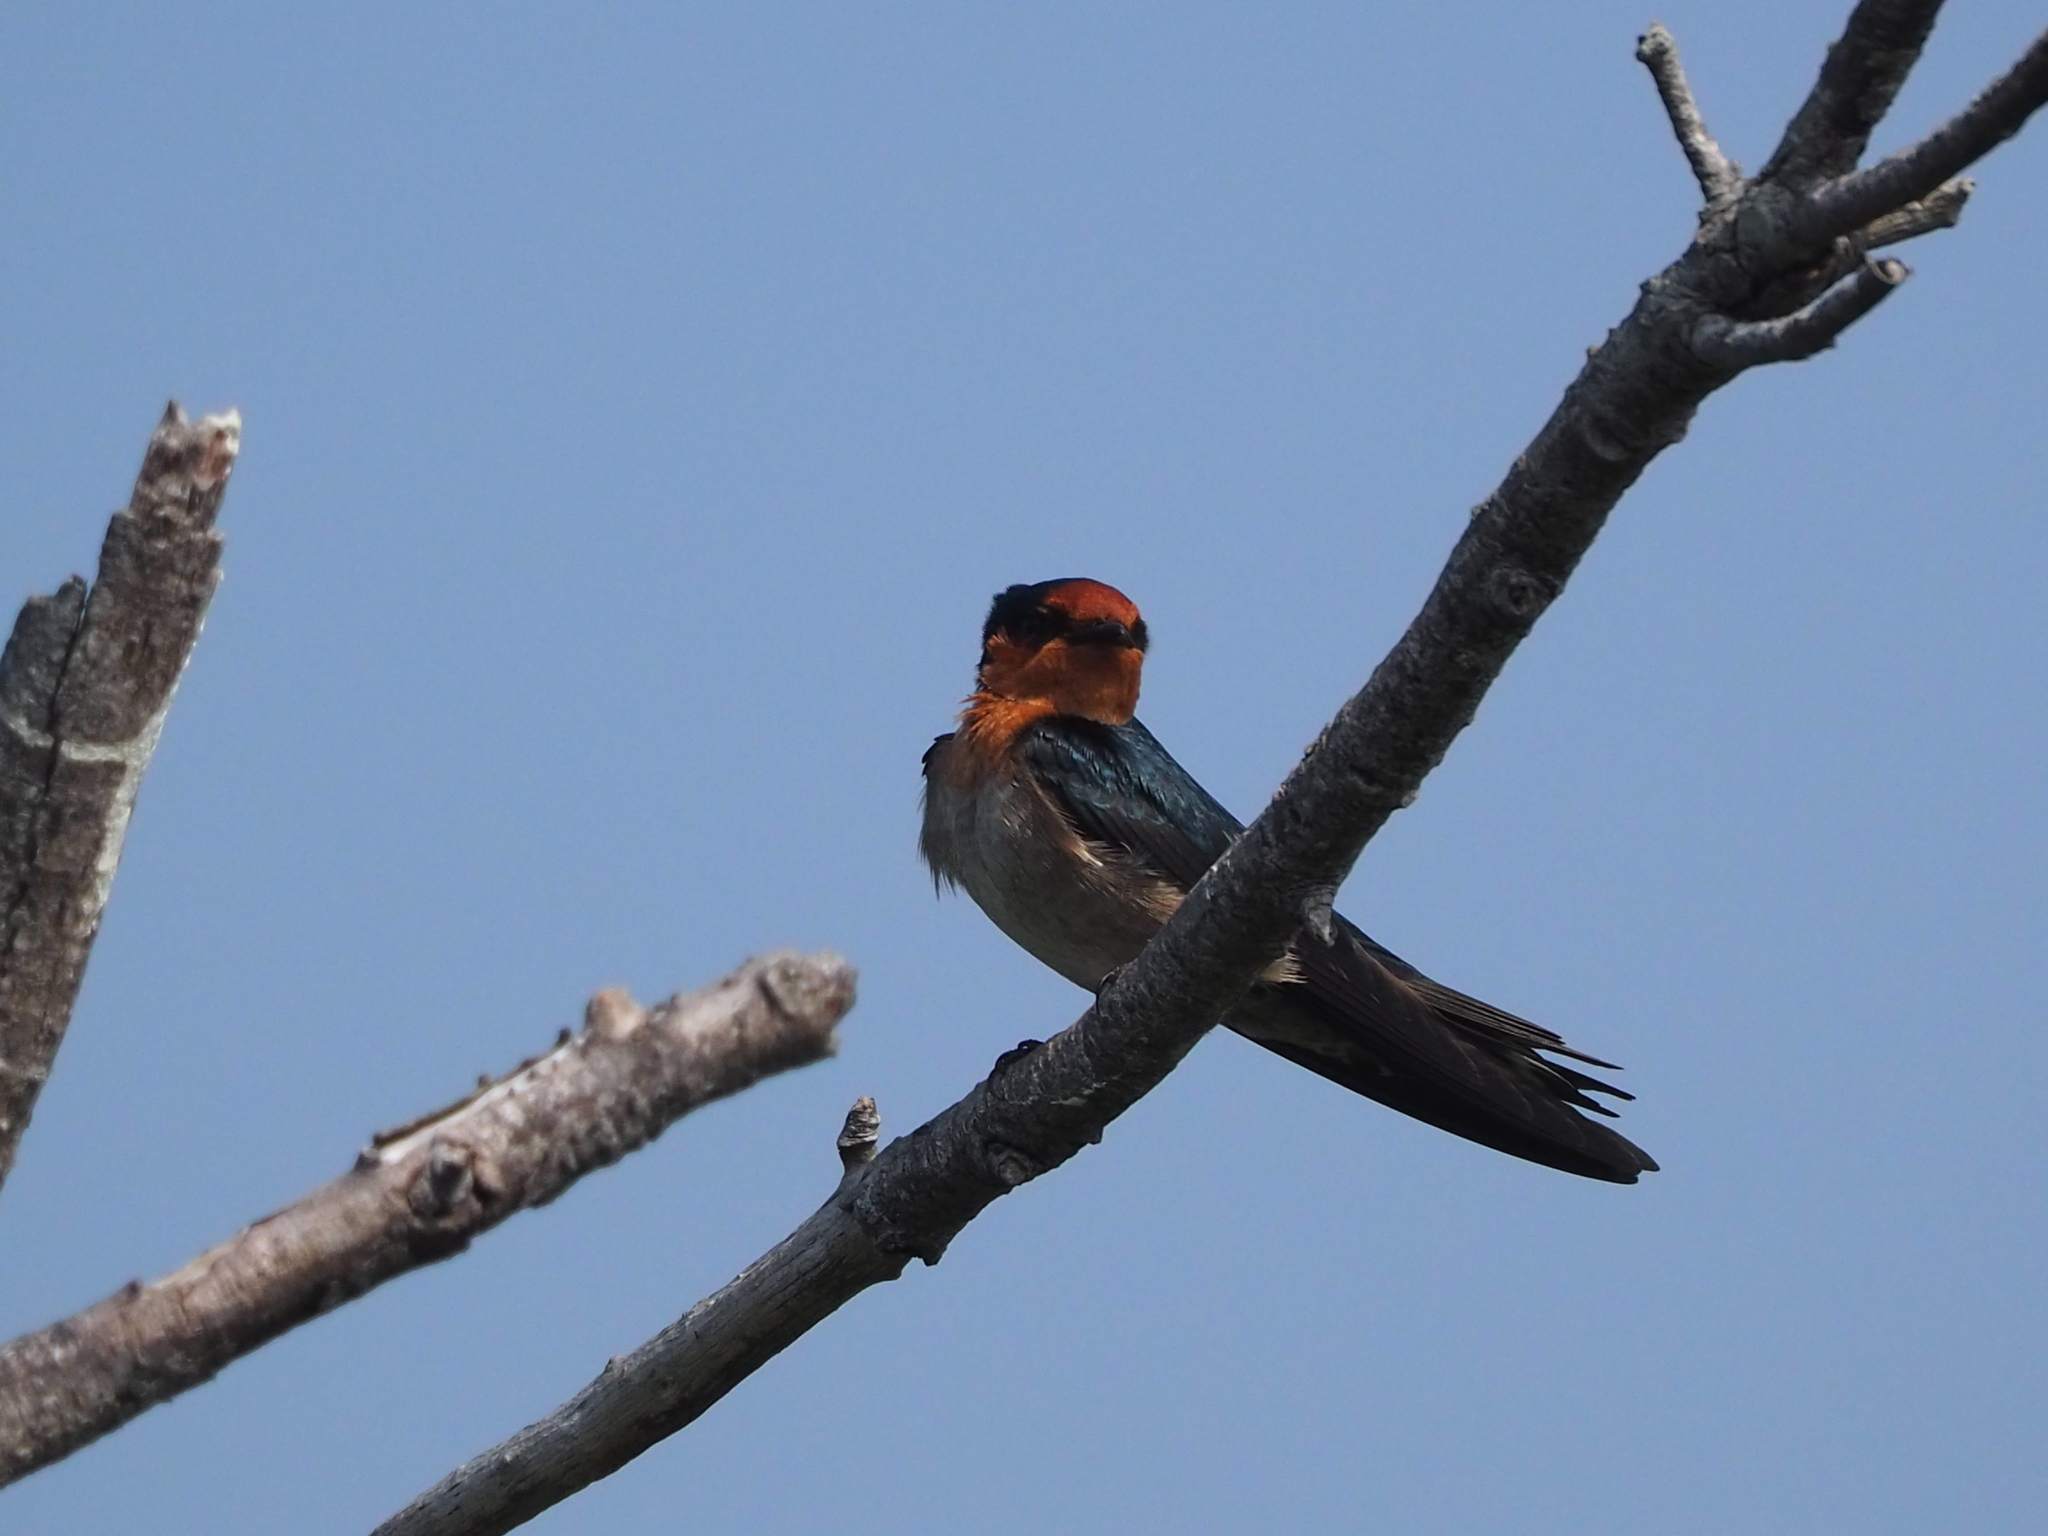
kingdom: Animalia
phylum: Chordata
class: Aves
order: Passeriformes
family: Hirundinidae
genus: Hirundo
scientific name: Hirundo tahitica
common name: Pacific swallow
